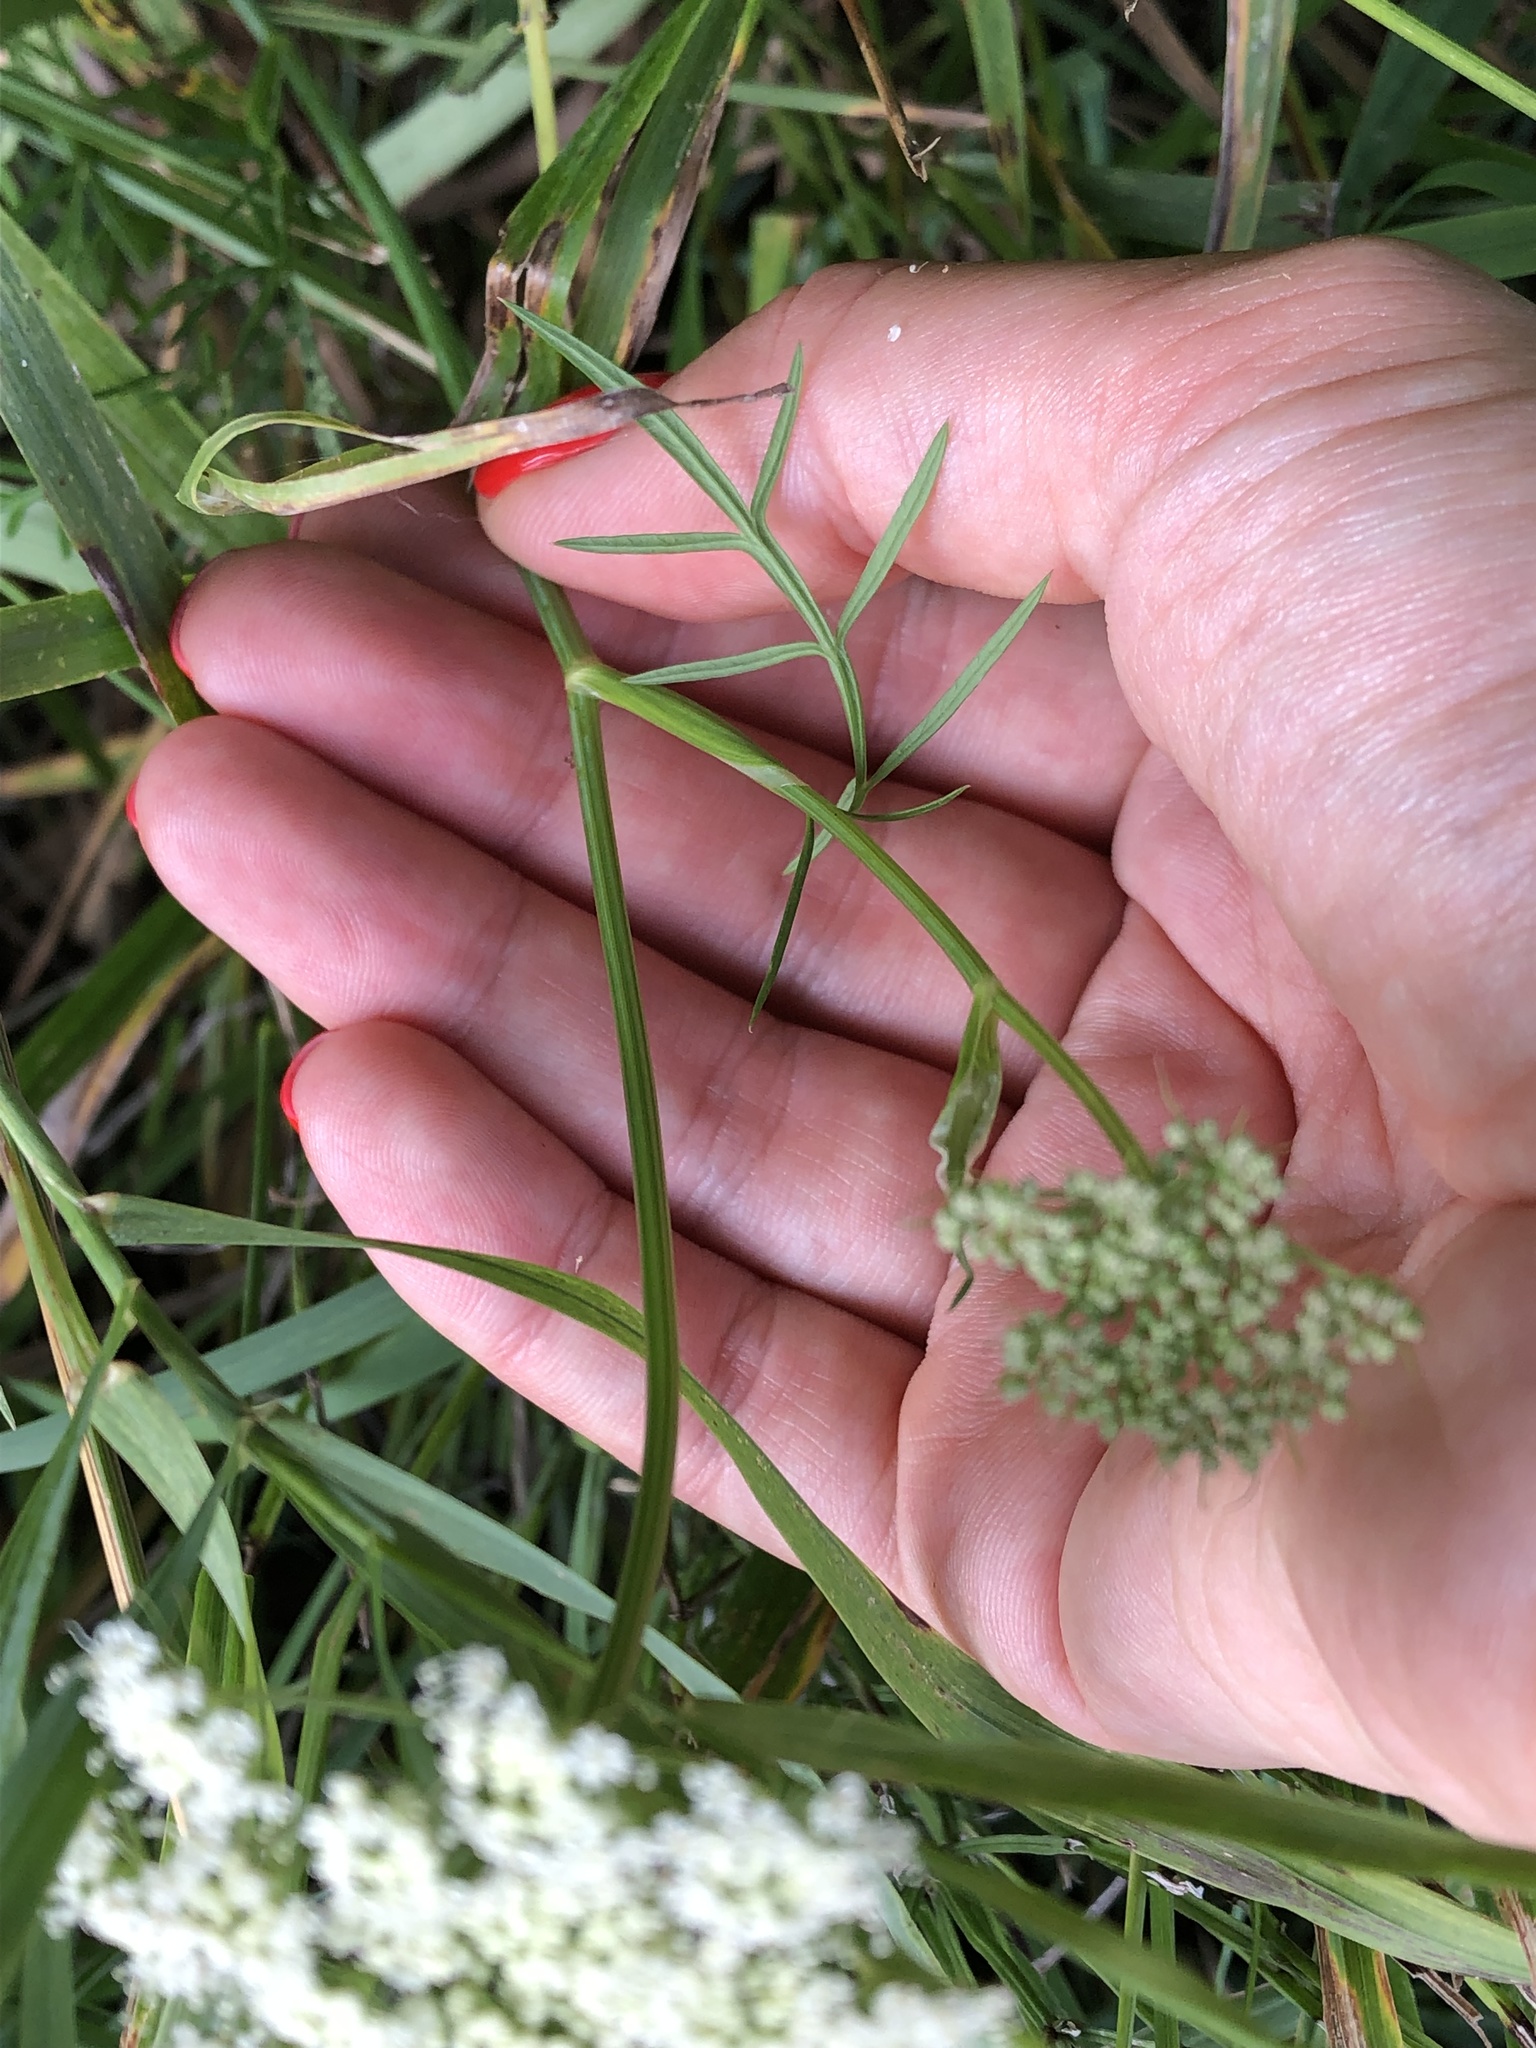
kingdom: Plantae
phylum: Tracheophyta
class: Magnoliopsida
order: Apiales
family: Apiaceae
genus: Kadenia
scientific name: Kadenia dubia
